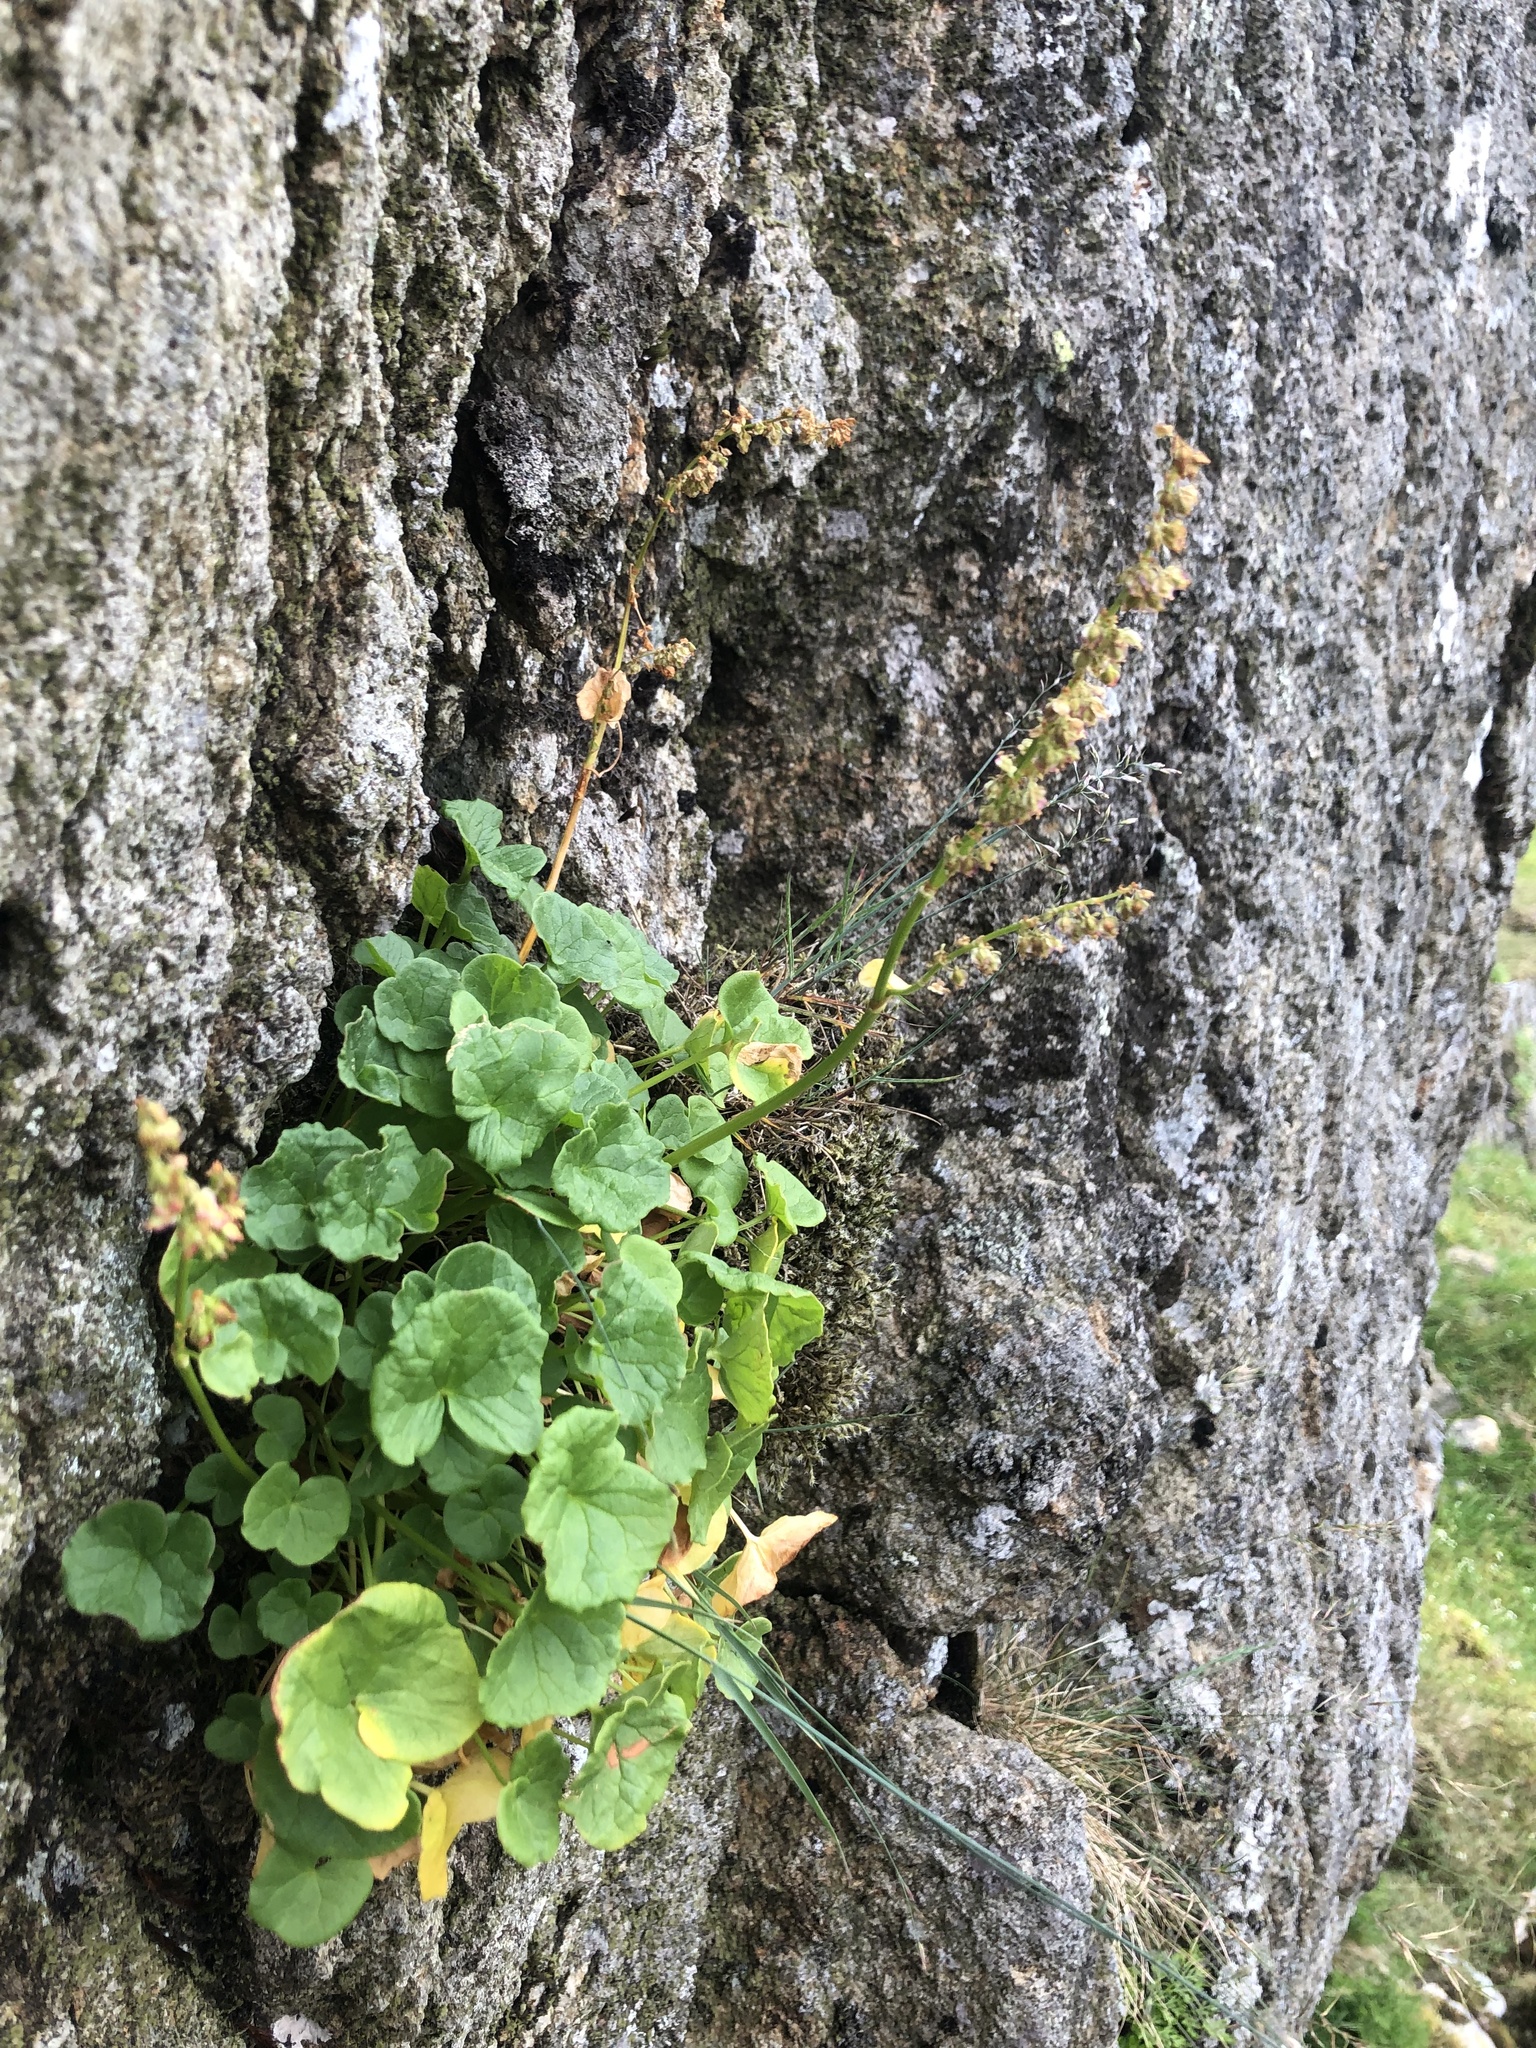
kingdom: Plantae
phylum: Tracheophyta
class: Magnoliopsida
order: Caryophyllales
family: Polygonaceae
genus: Oxyria
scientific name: Oxyria digyna
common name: Alpine mountain-sorrel
